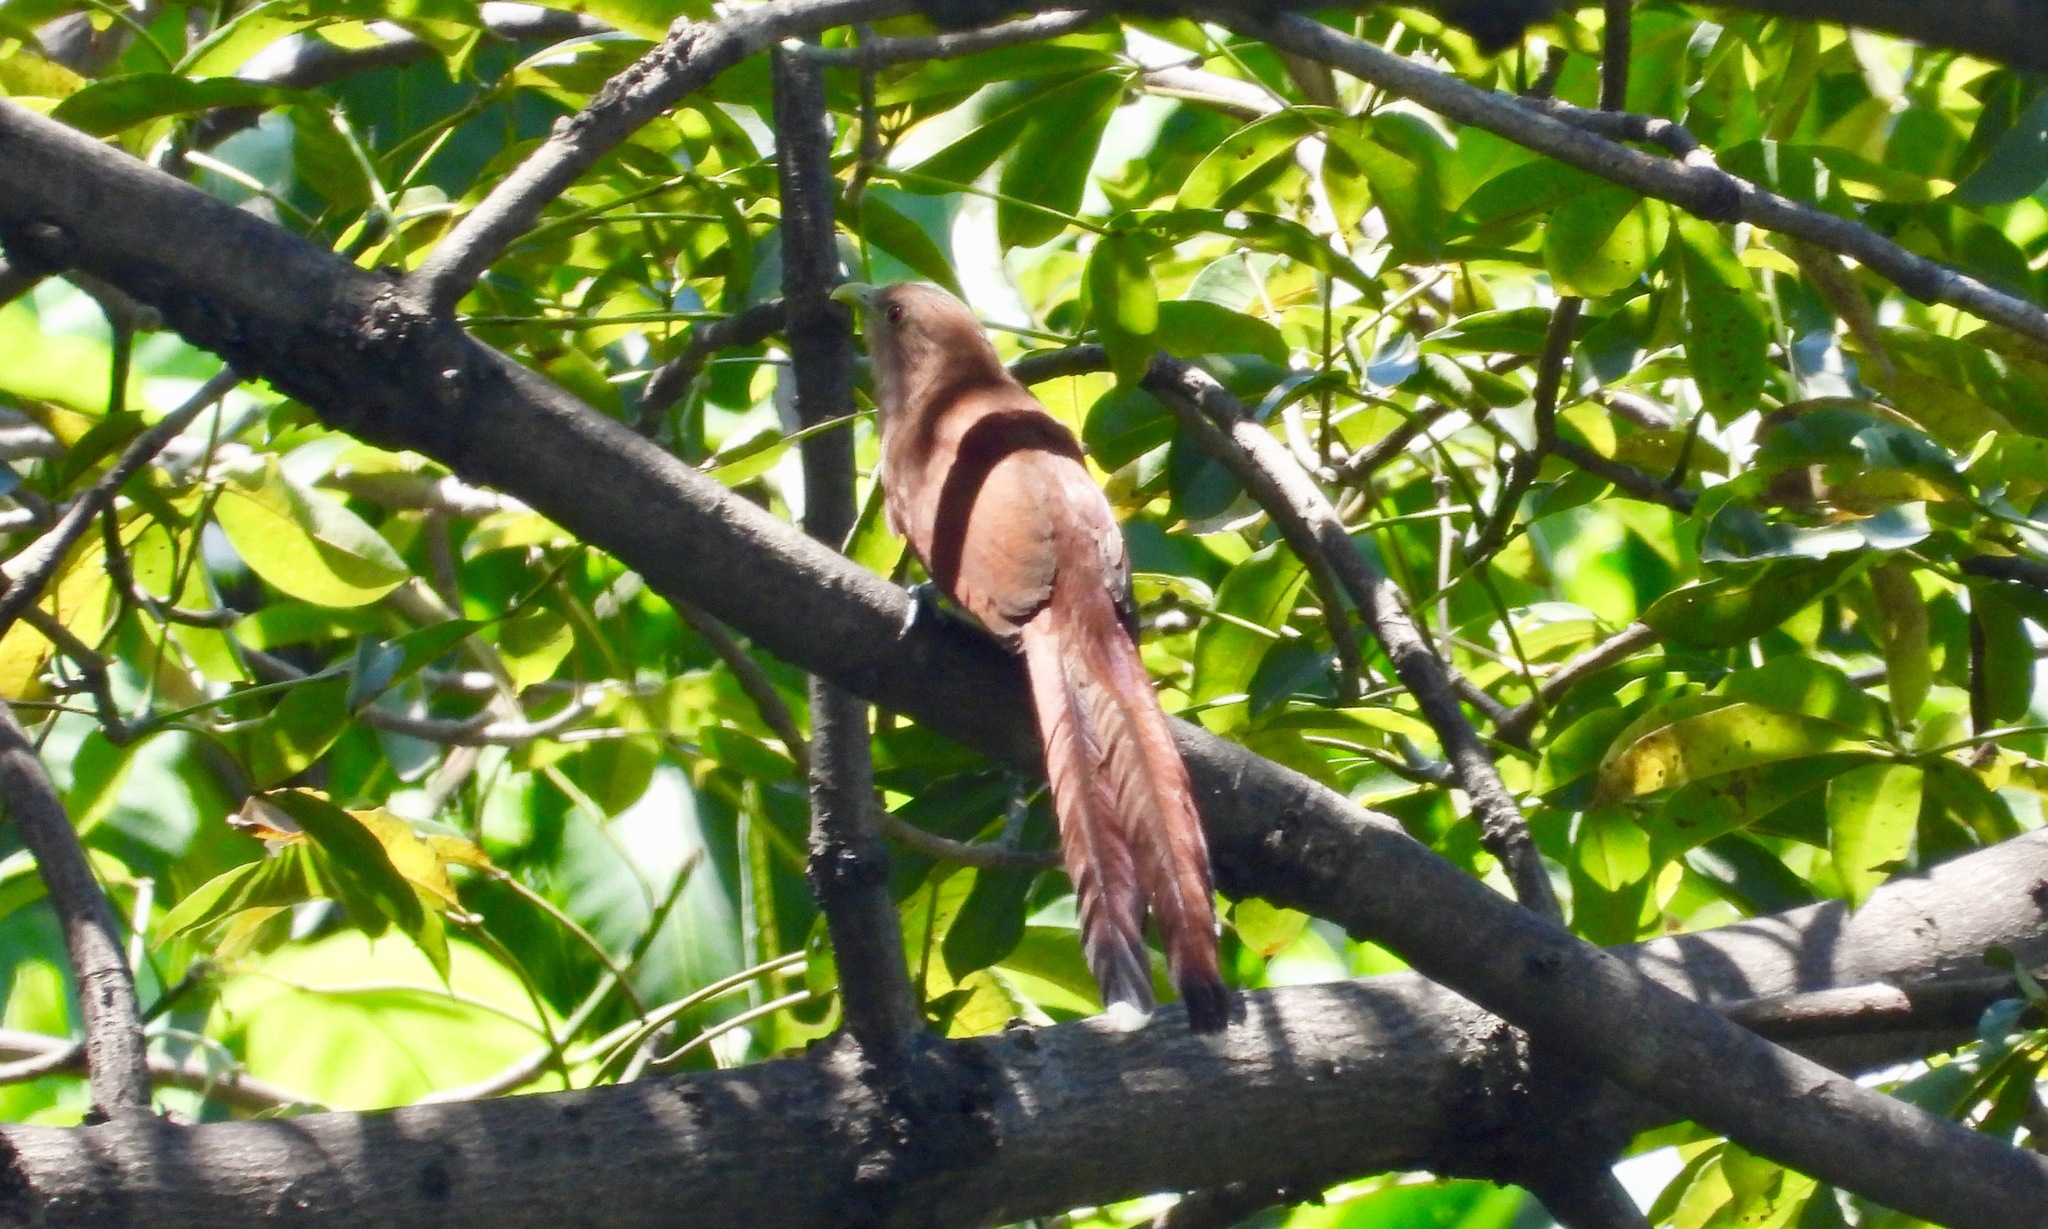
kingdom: Animalia
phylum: Chordata
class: Aves
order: Cuculiformes
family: Cuculidae
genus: Piaya
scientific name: Piaya cayana
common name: Squirrel cuckoo
